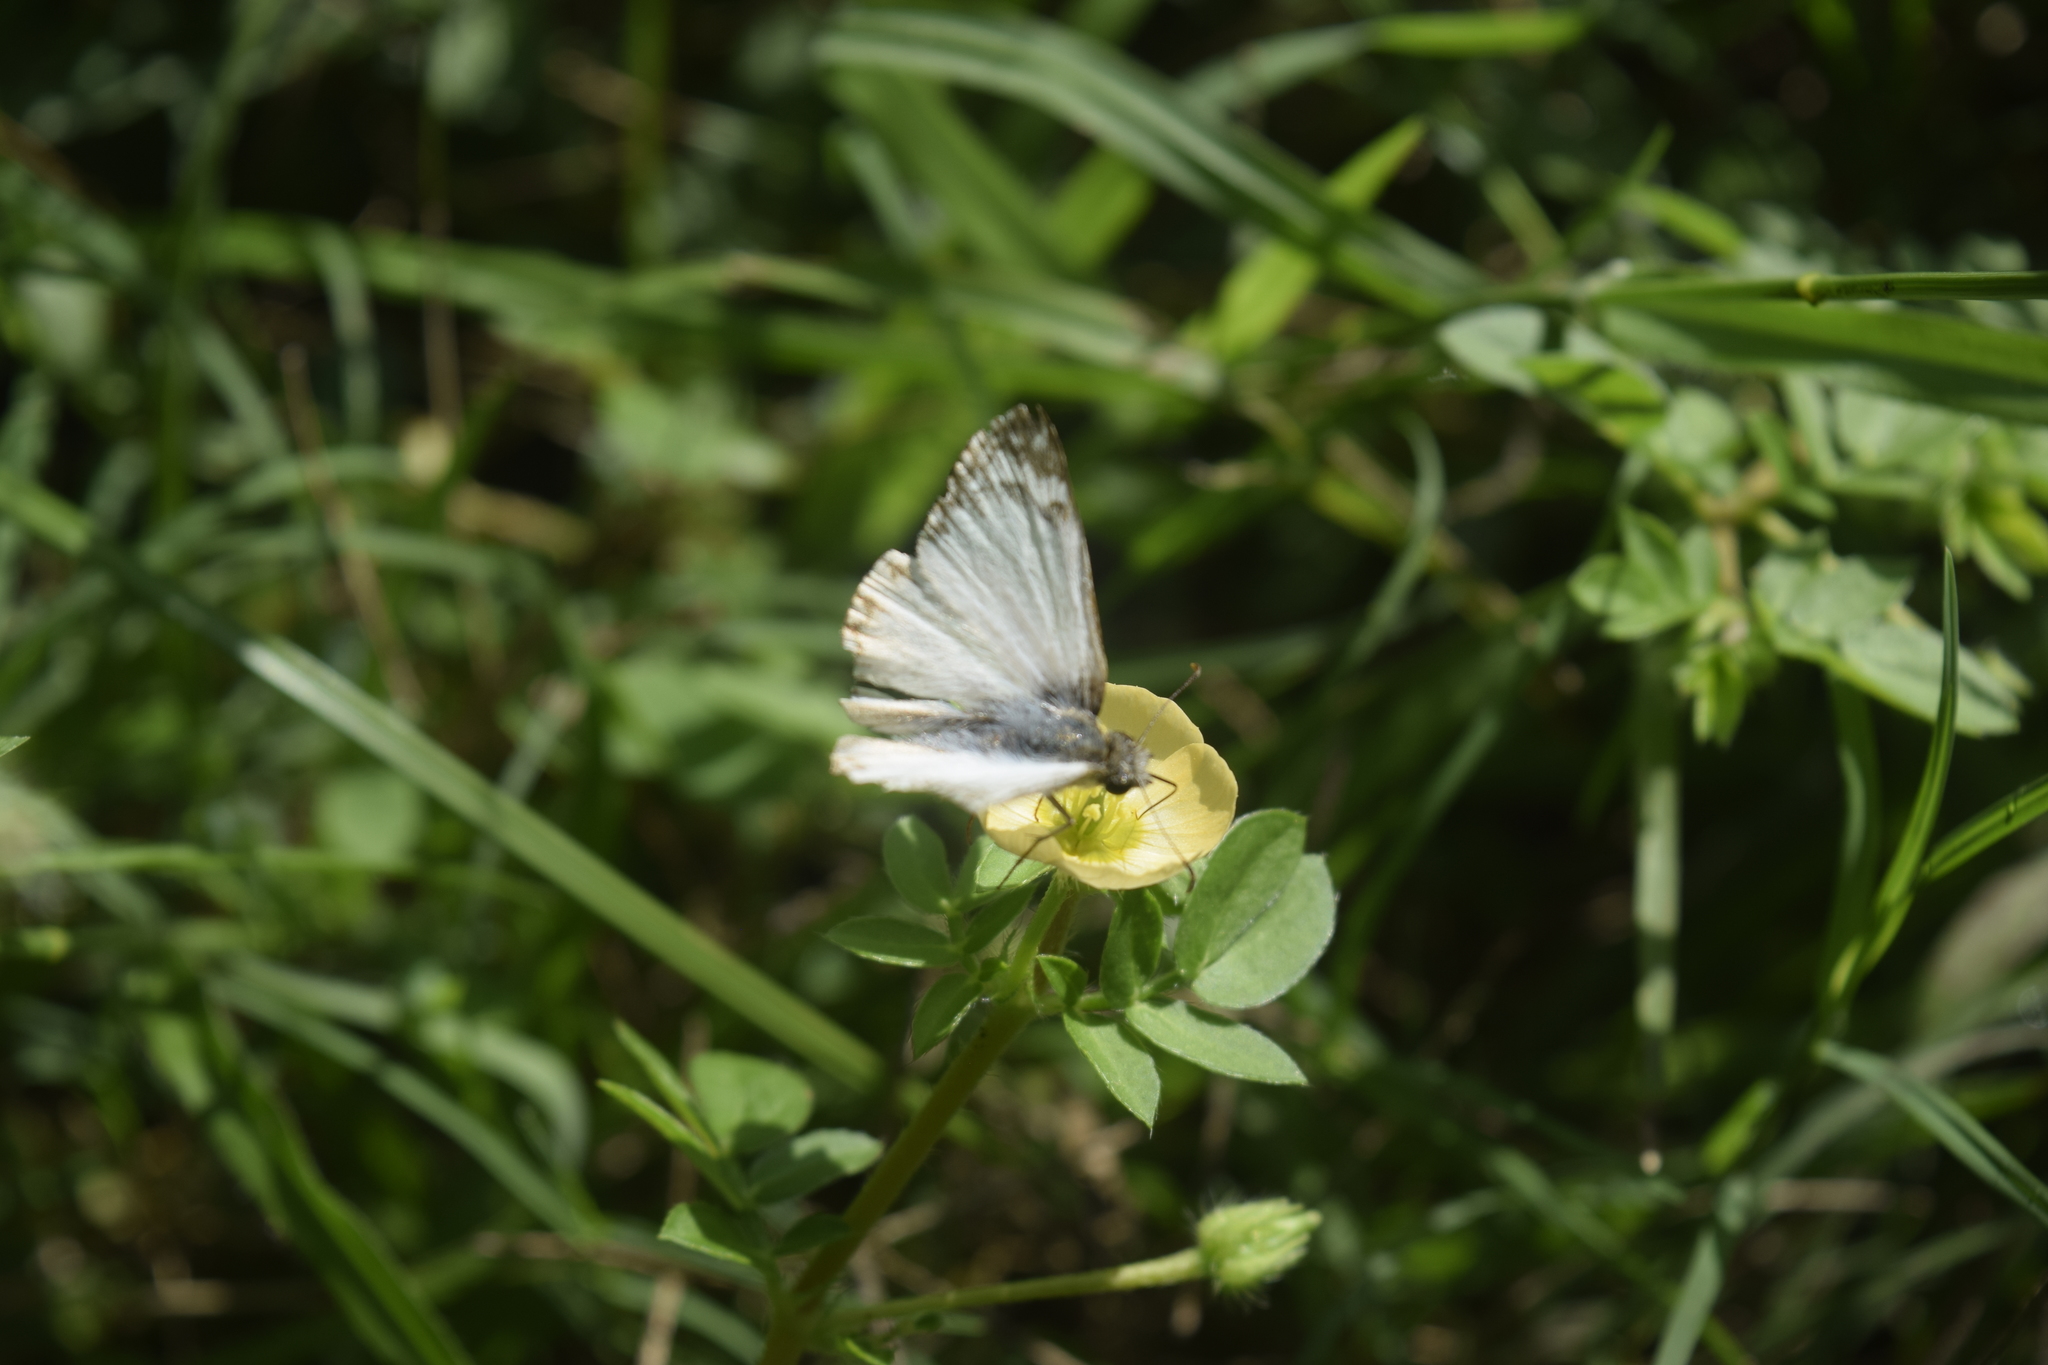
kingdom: Animalia
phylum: Arthropoda
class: Insecta
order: Lepidoptera
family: Hesperiidae
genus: Heliopetes
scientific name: Heliopetes laviana
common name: Laviana white-skipper
